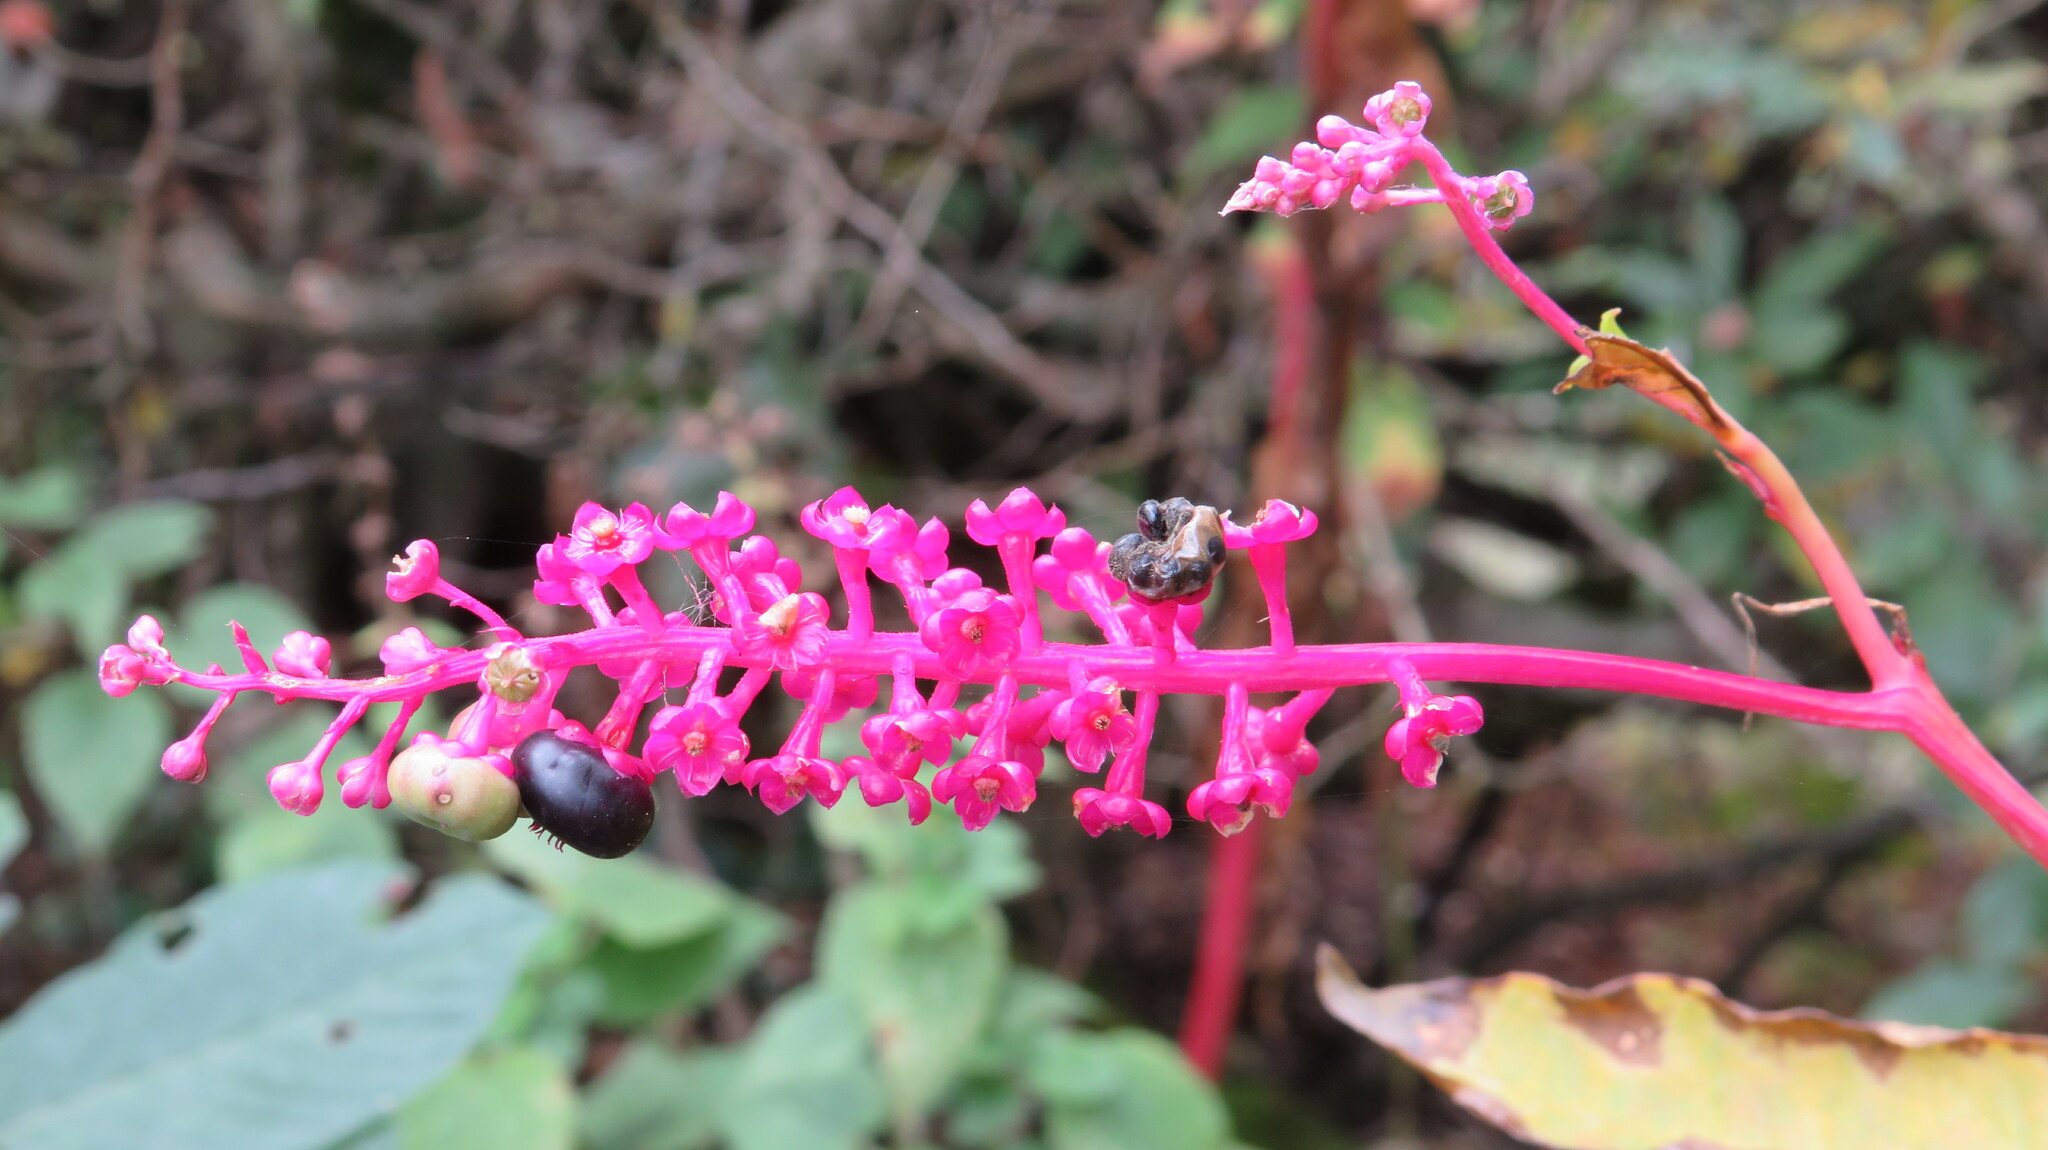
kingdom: Plantae
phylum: Tracheophyta
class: Magnoliopsida
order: Caryophyllales
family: Phytolaccaceae
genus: Phytolacca
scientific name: Phytolacca americana
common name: American pokeweed
